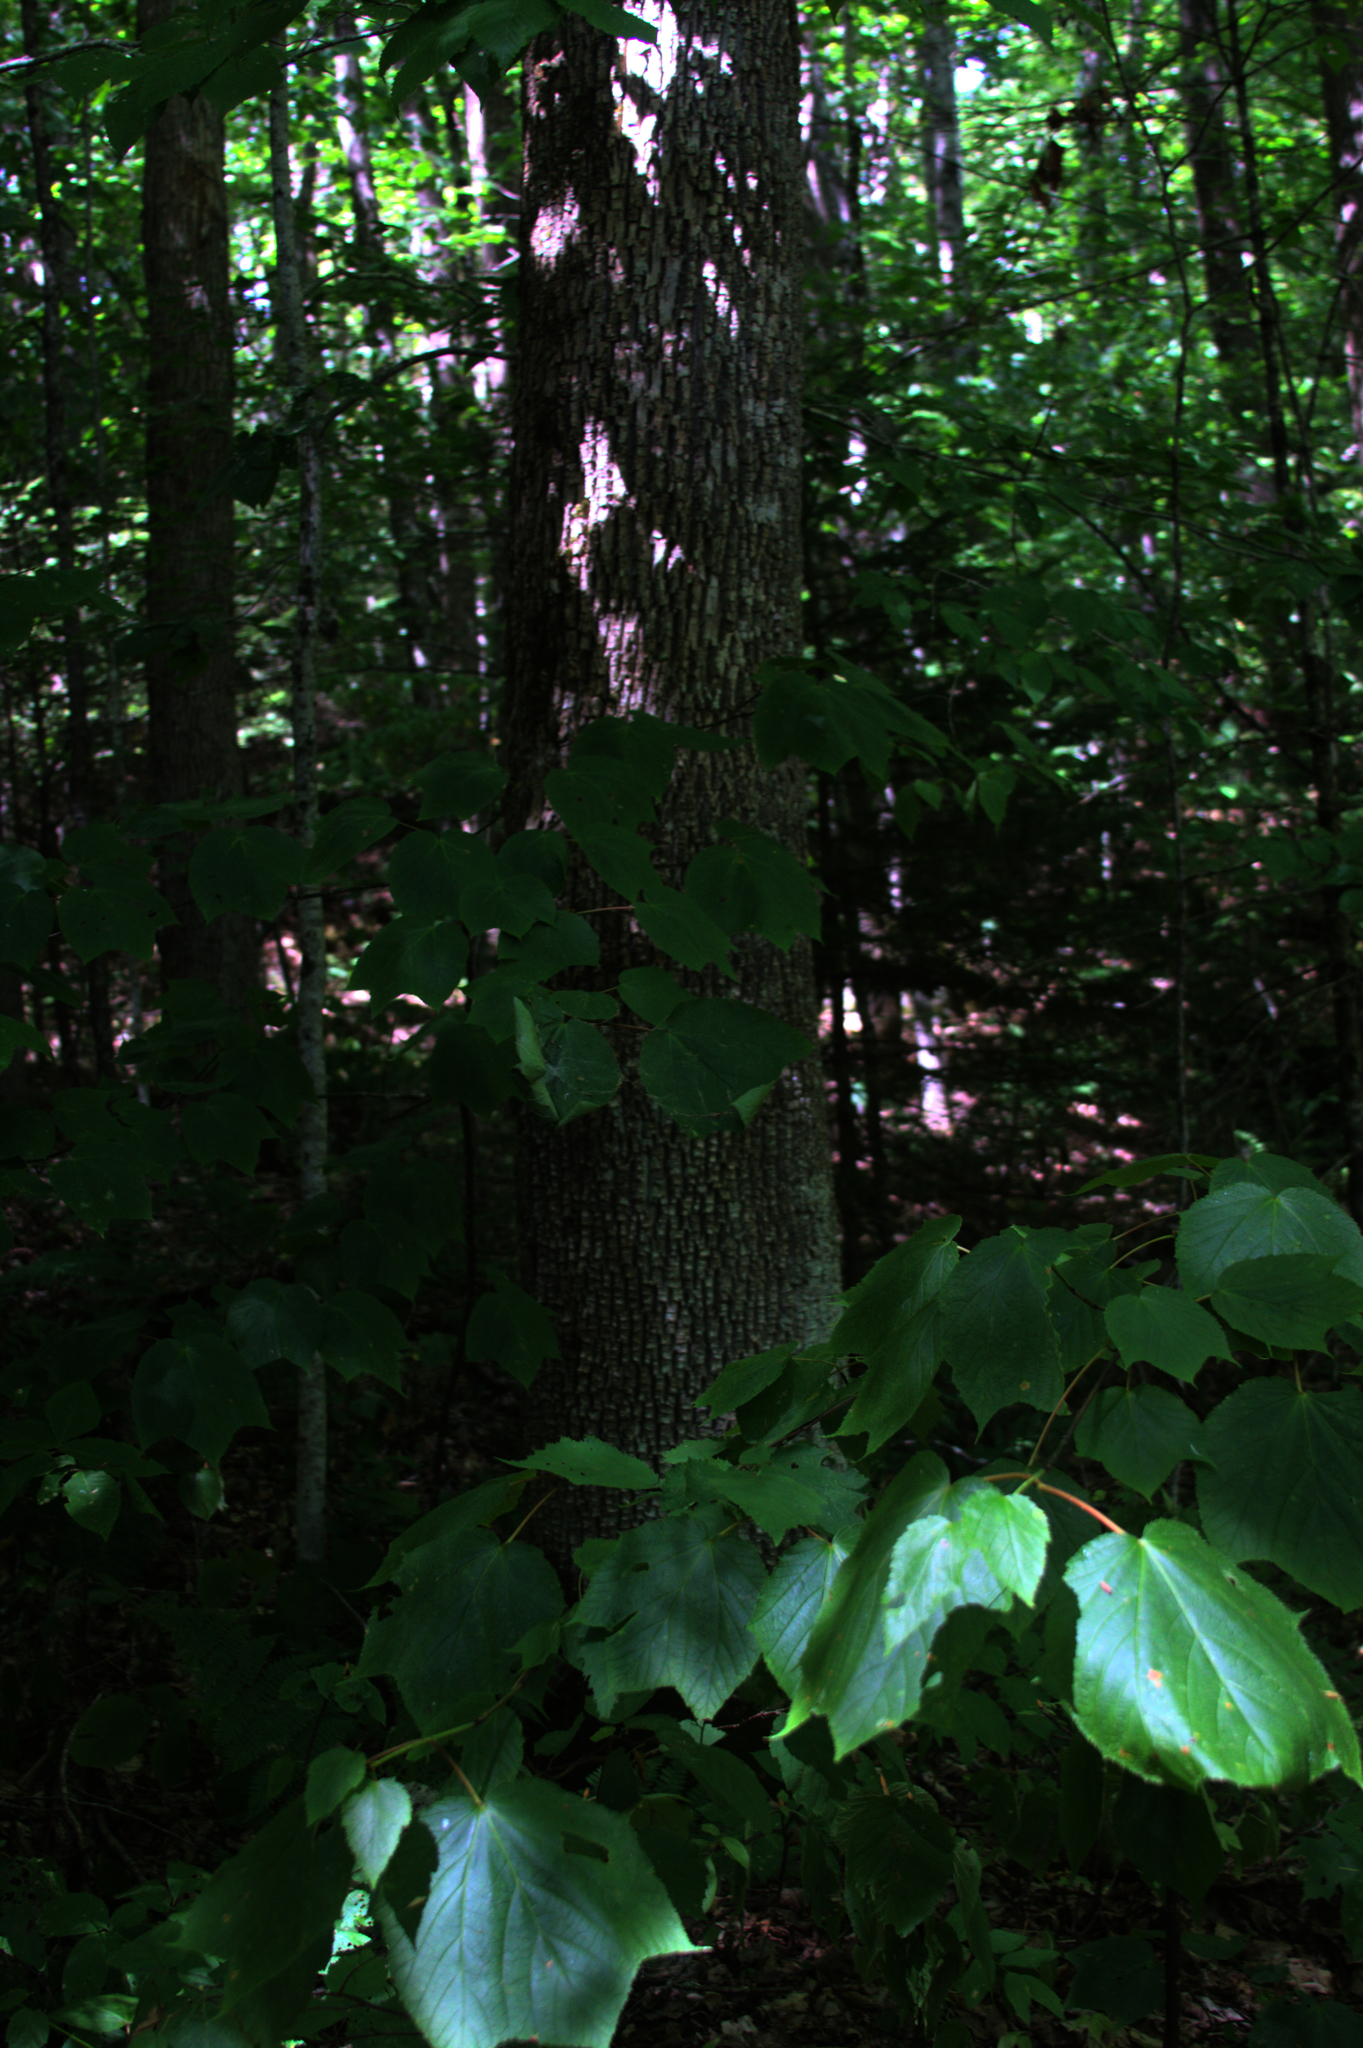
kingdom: Plantae
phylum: Tracheophyta
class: Magnoliopsida
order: Sapindales
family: Sapindaceae
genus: Acer
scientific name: Acer pensylvanicum
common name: Moosewood
